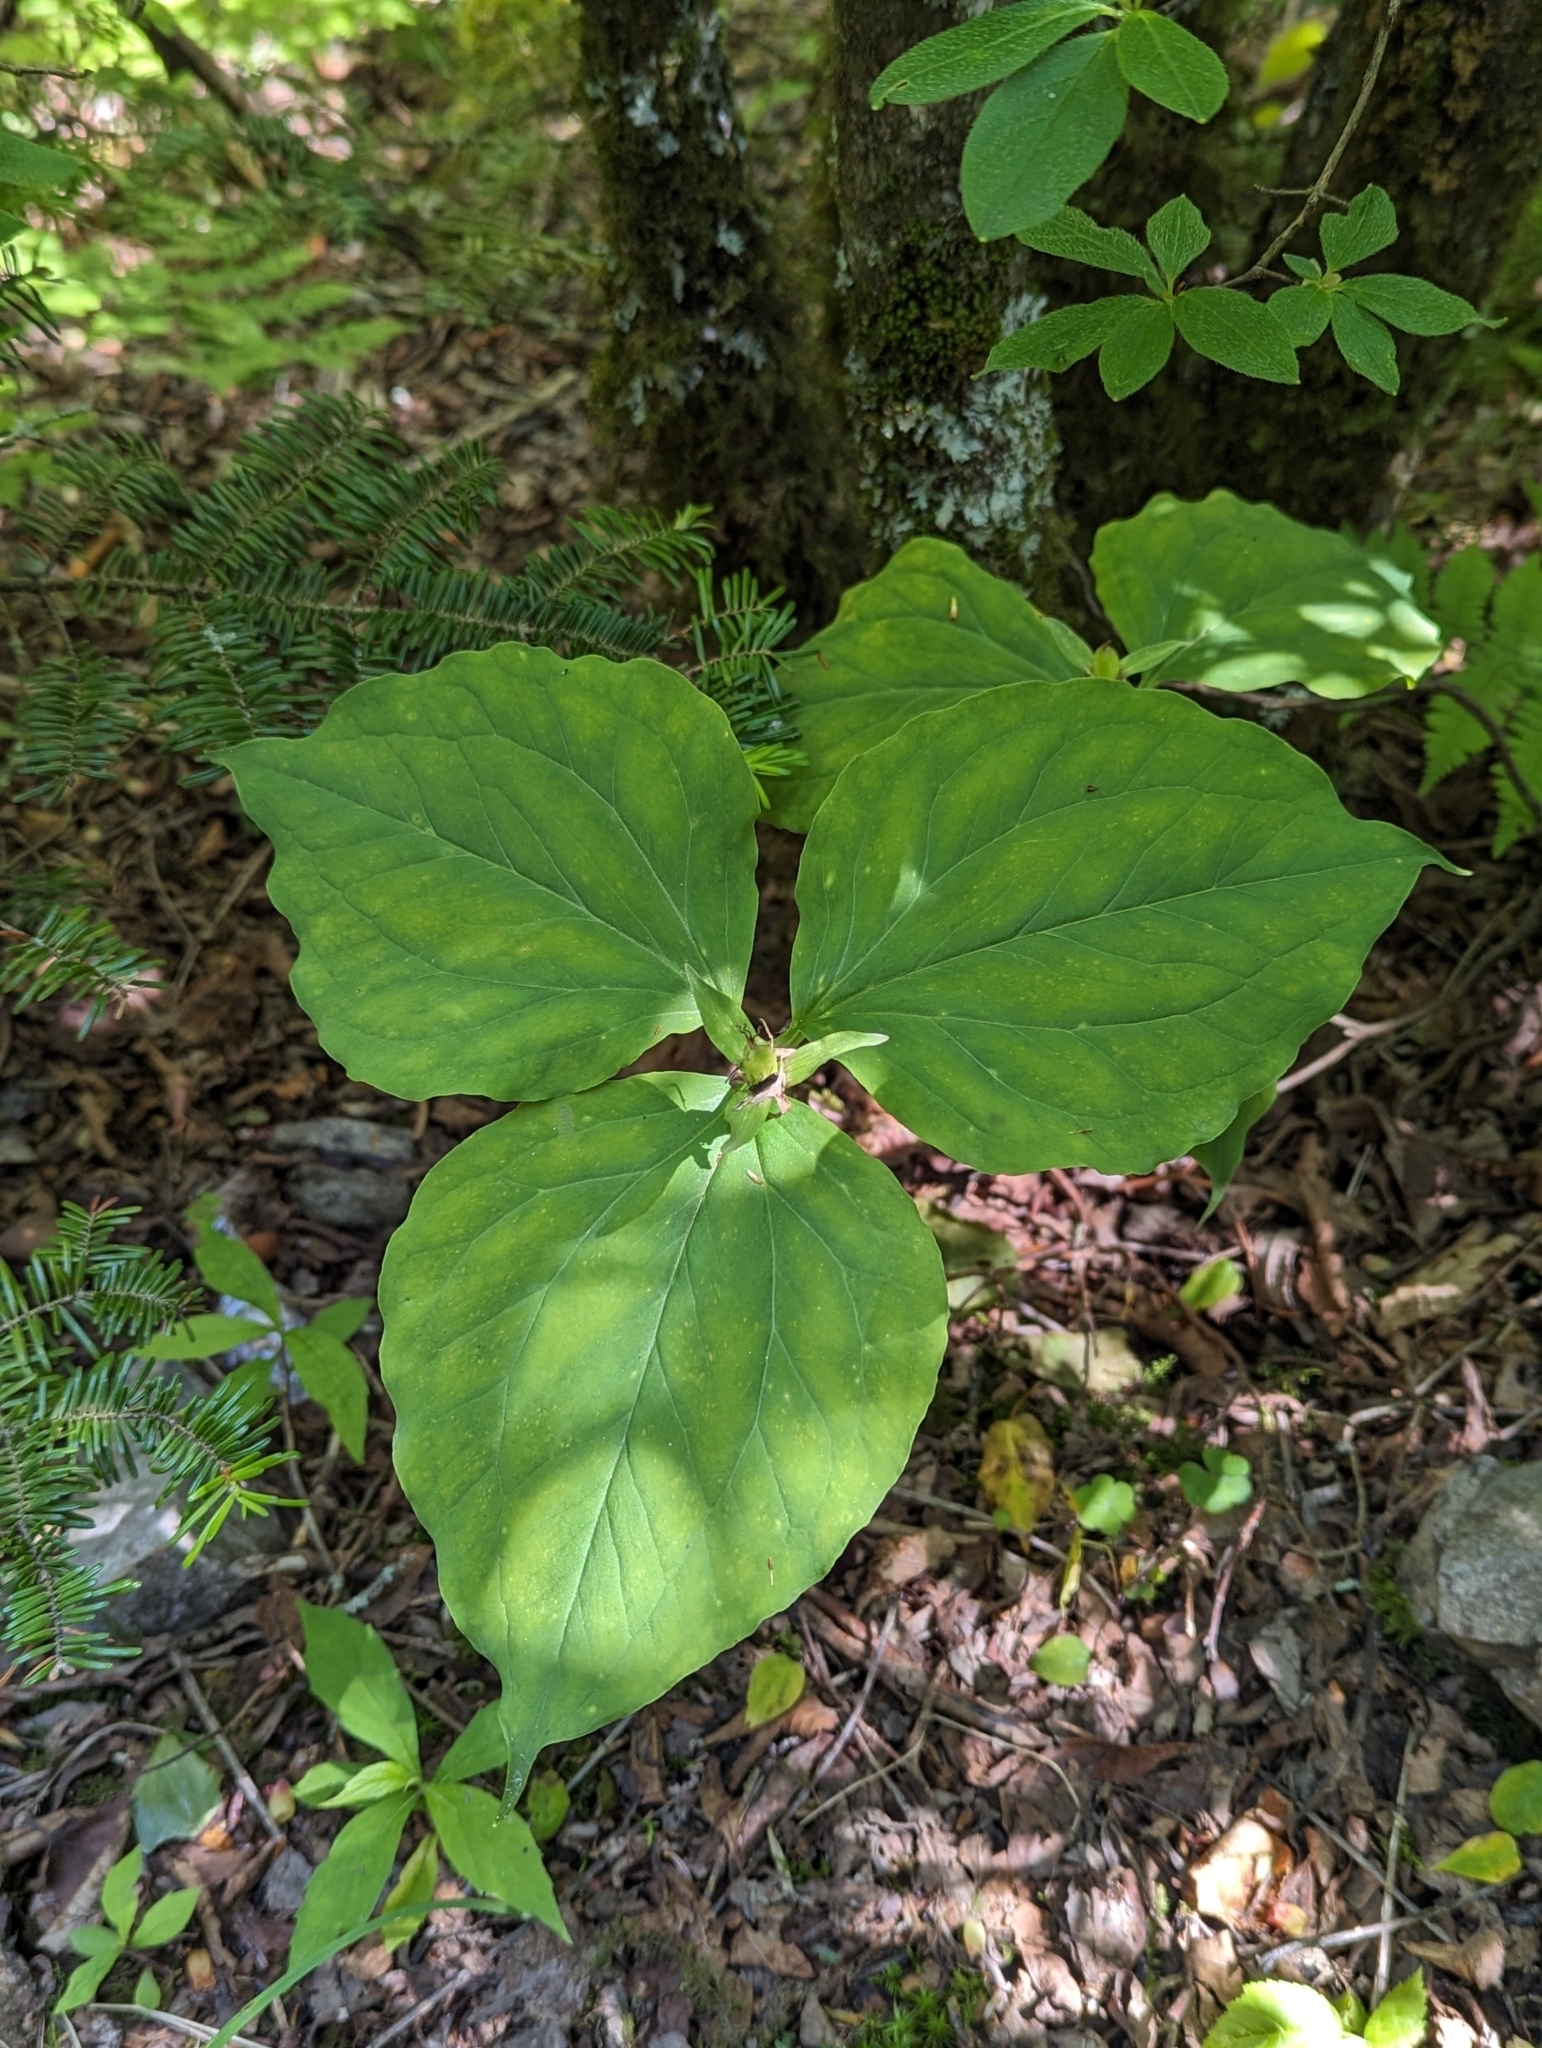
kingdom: Plantae
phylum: Tracheophyta
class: Liliopsida
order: Liliales
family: Melanthiaceae
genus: Trillium
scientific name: Trillium undulatum
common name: Paint trillium
